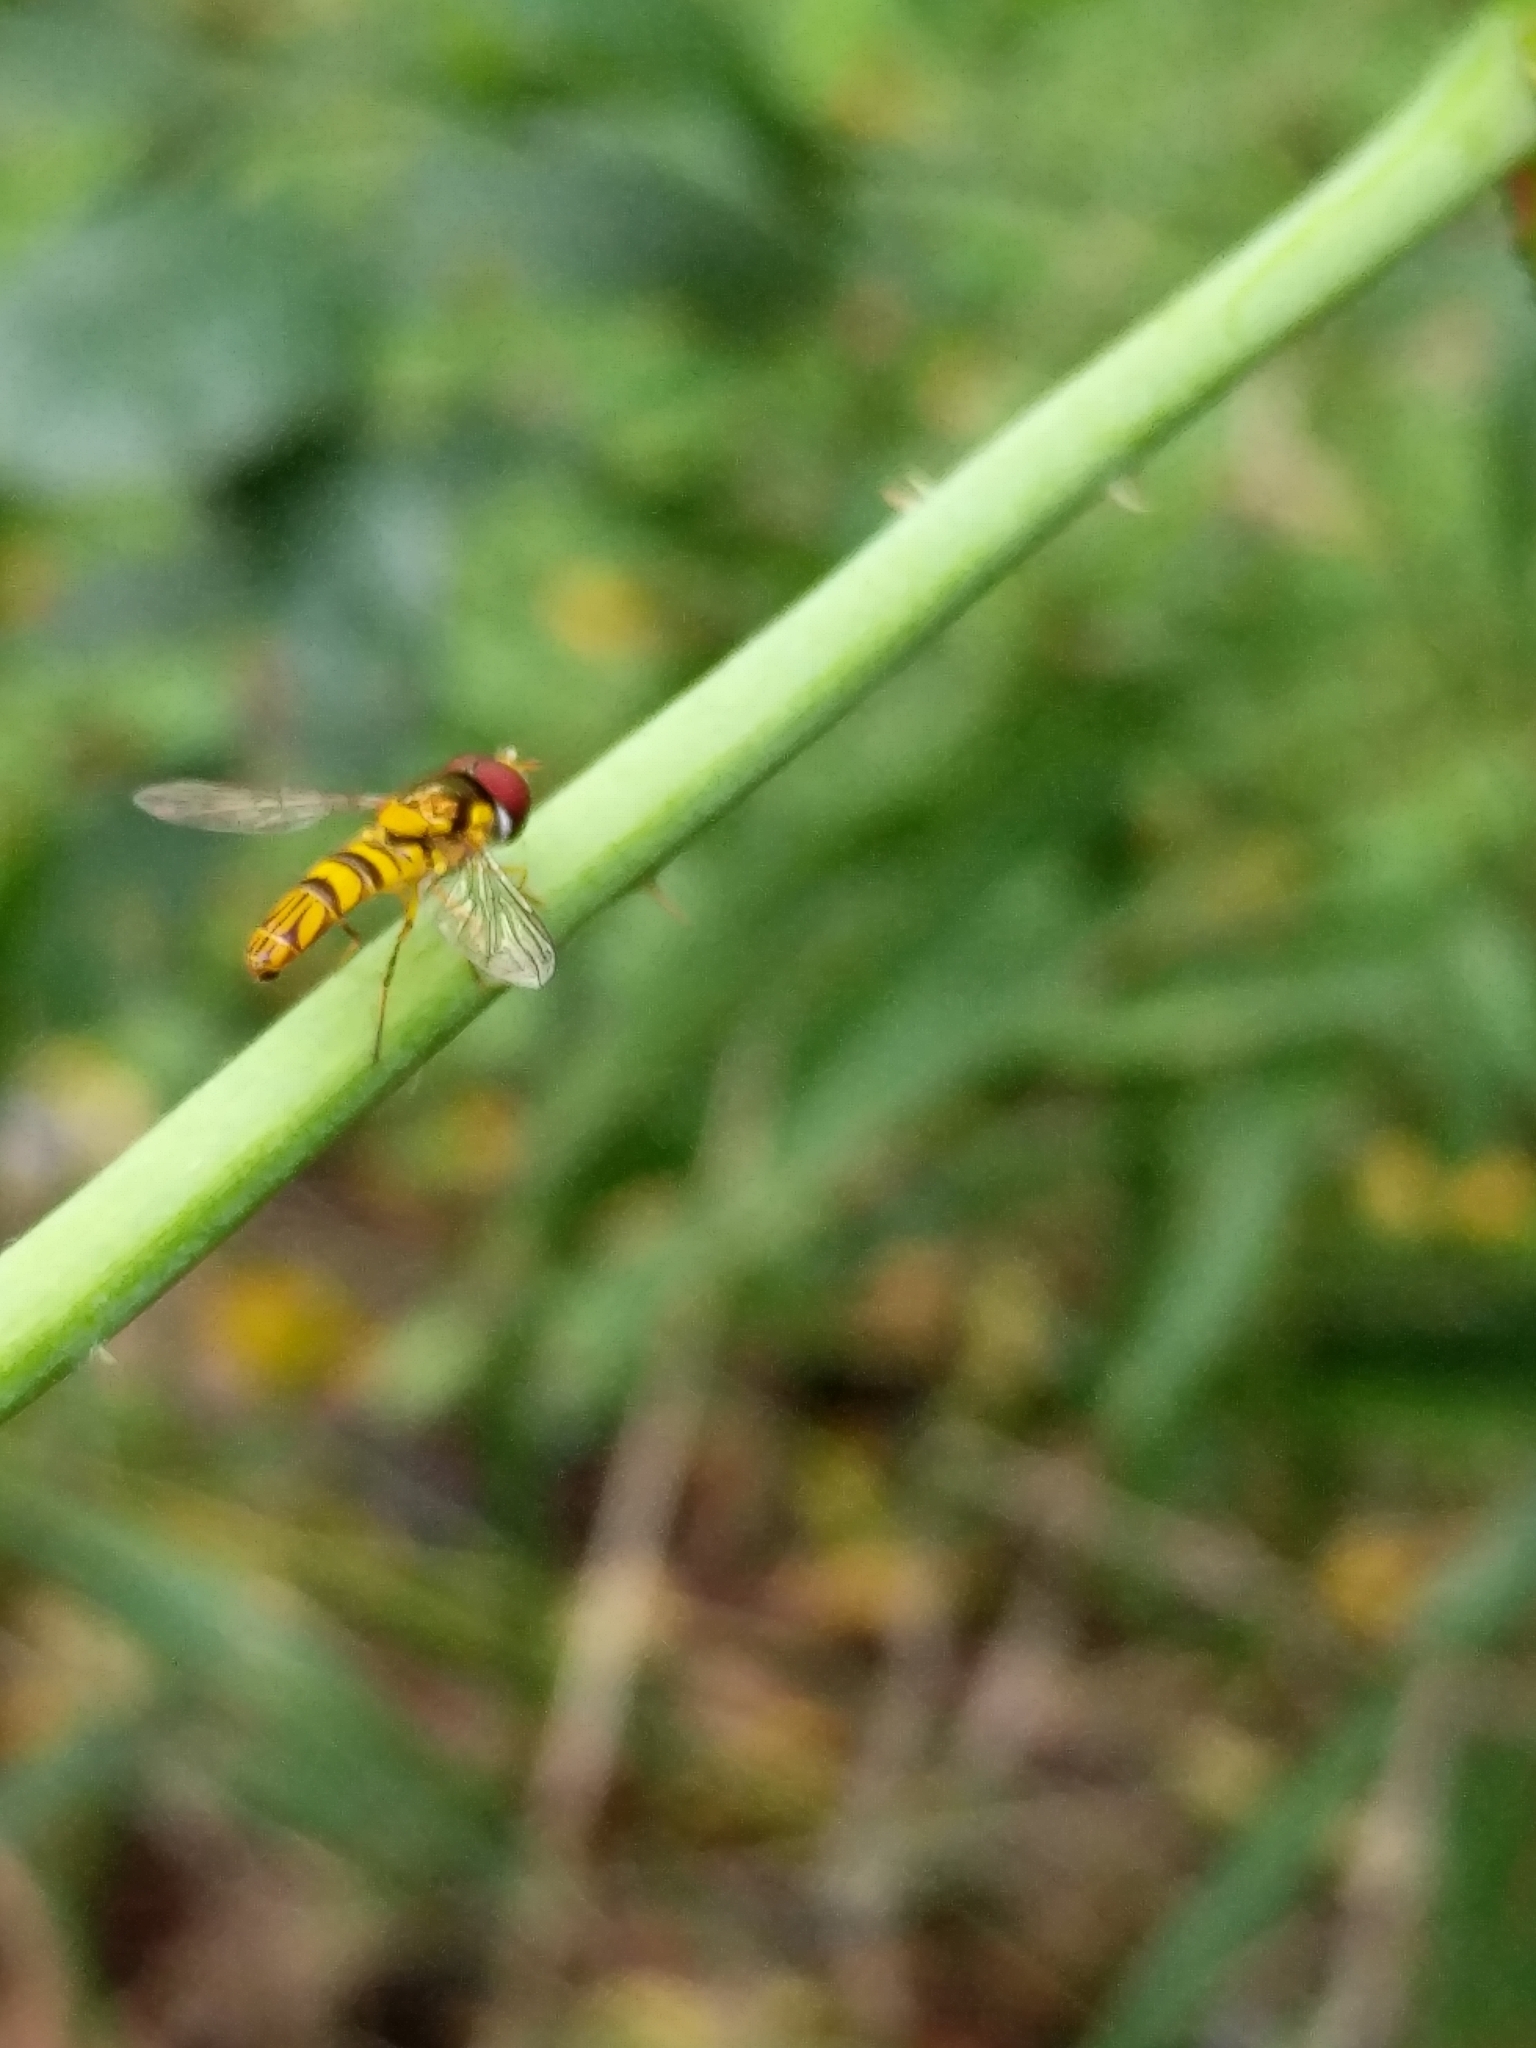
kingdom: Animalia
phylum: Arthropoda
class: Insecta
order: Diptera
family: Syrphidae
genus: Allograpta
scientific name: Allograpta obliqua
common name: Common oblique syrphid
